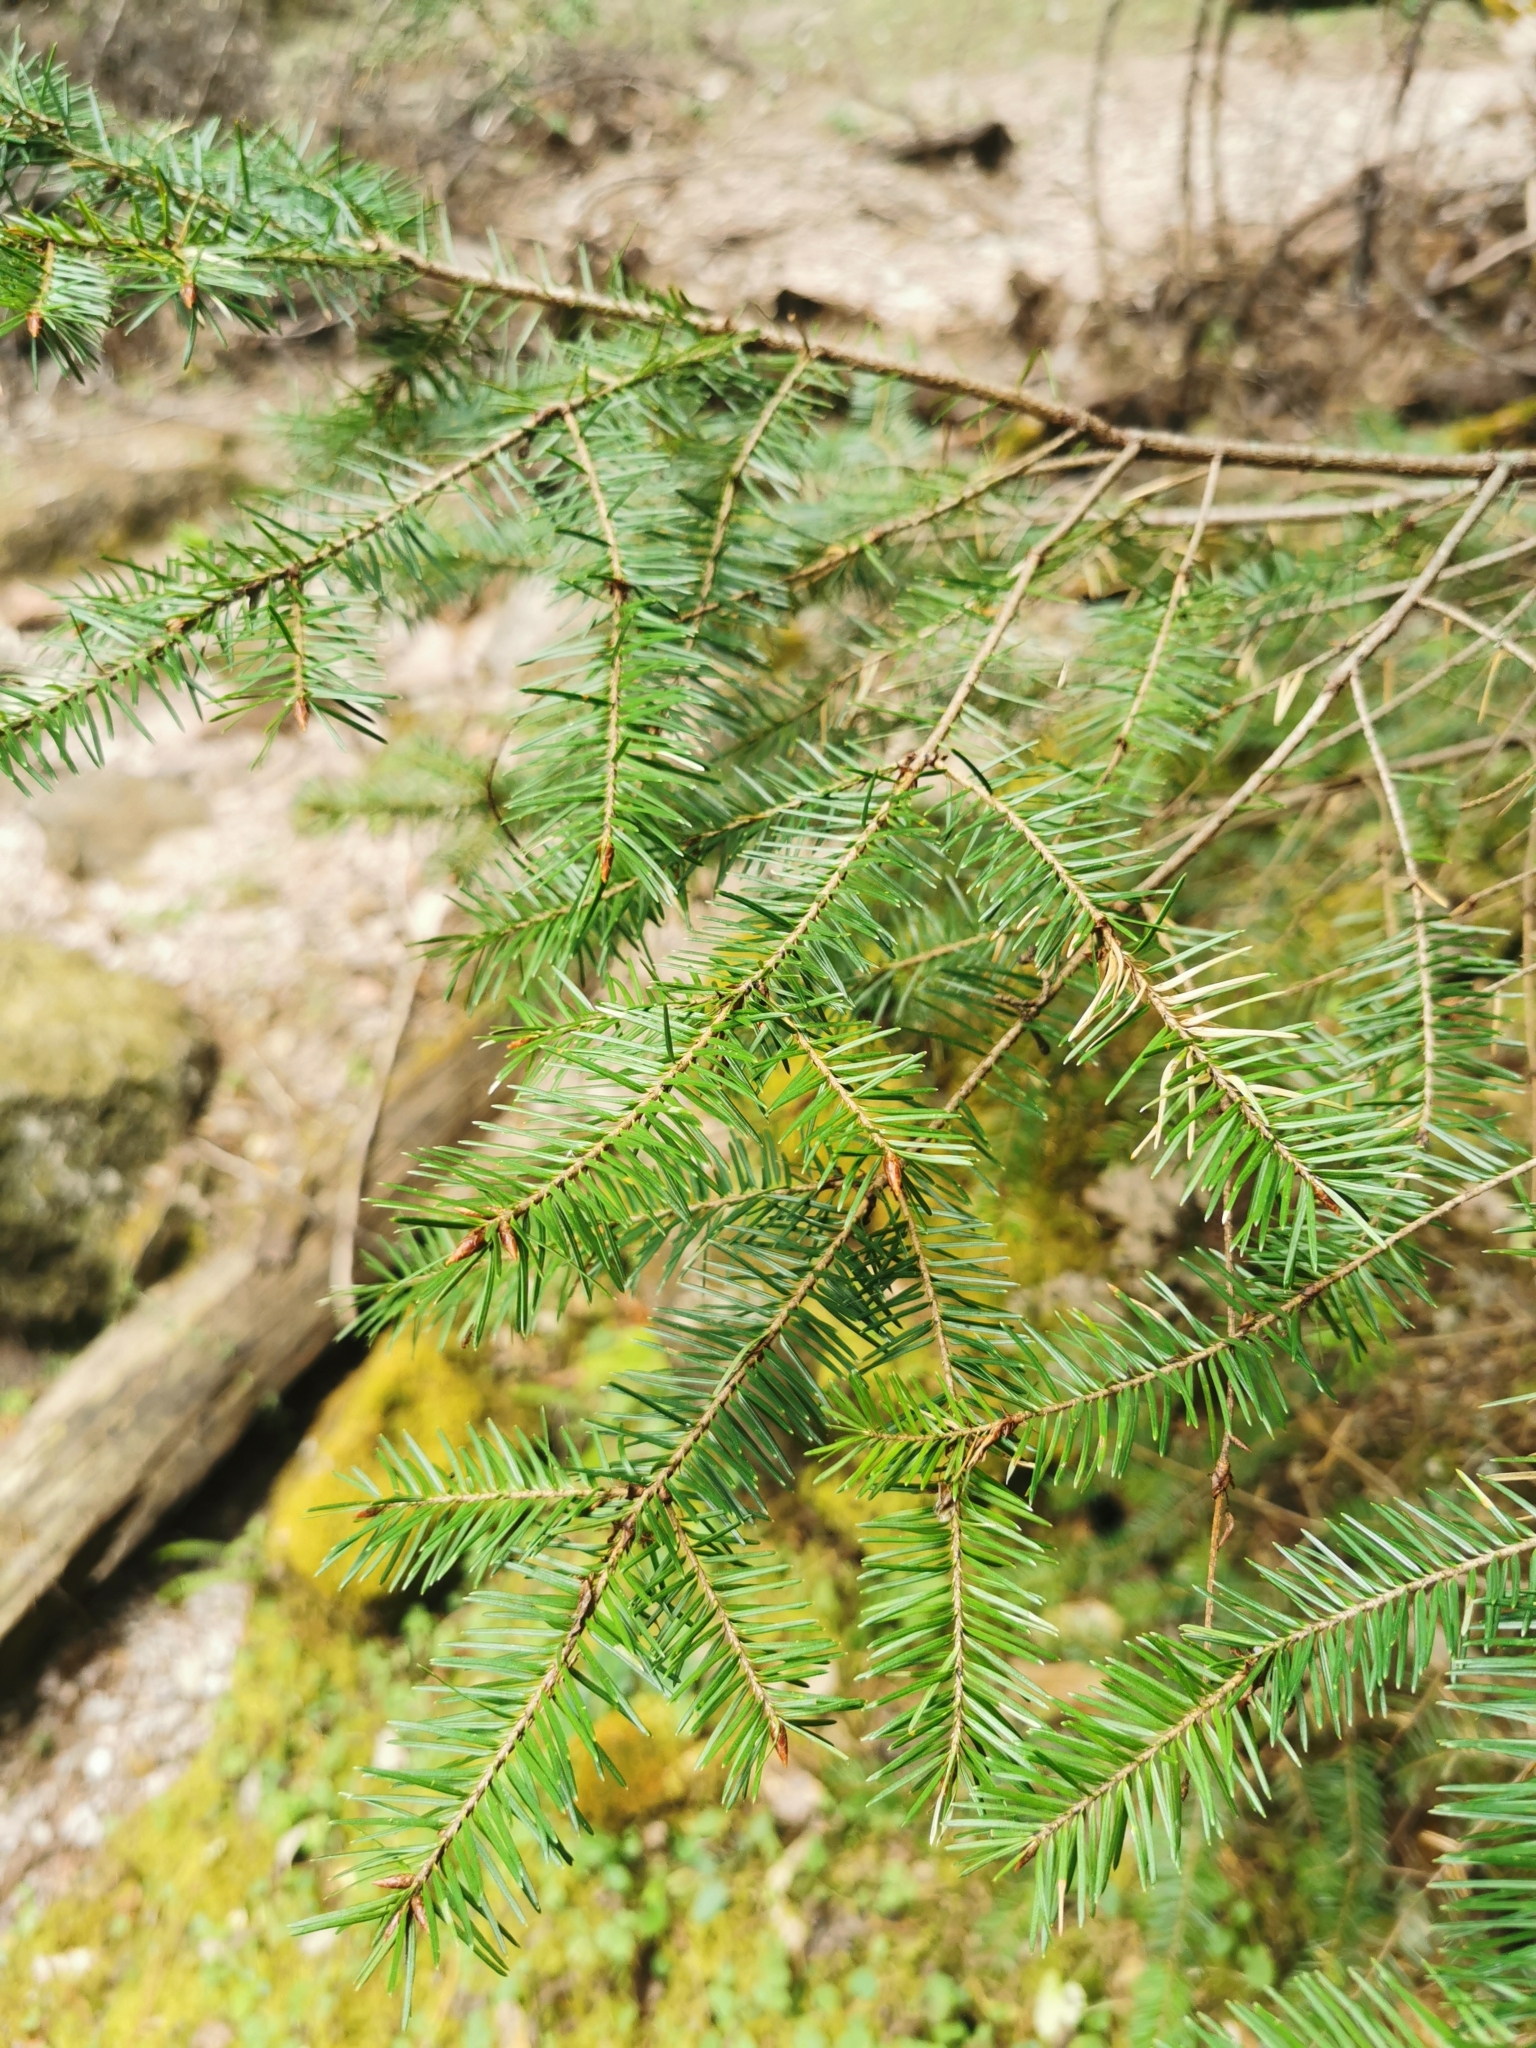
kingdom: Plantae
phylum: Tracheophyta
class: Pinopsida
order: Pinales
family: Pinaceae
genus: Abies
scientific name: Abies durangensis
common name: Durango fir
